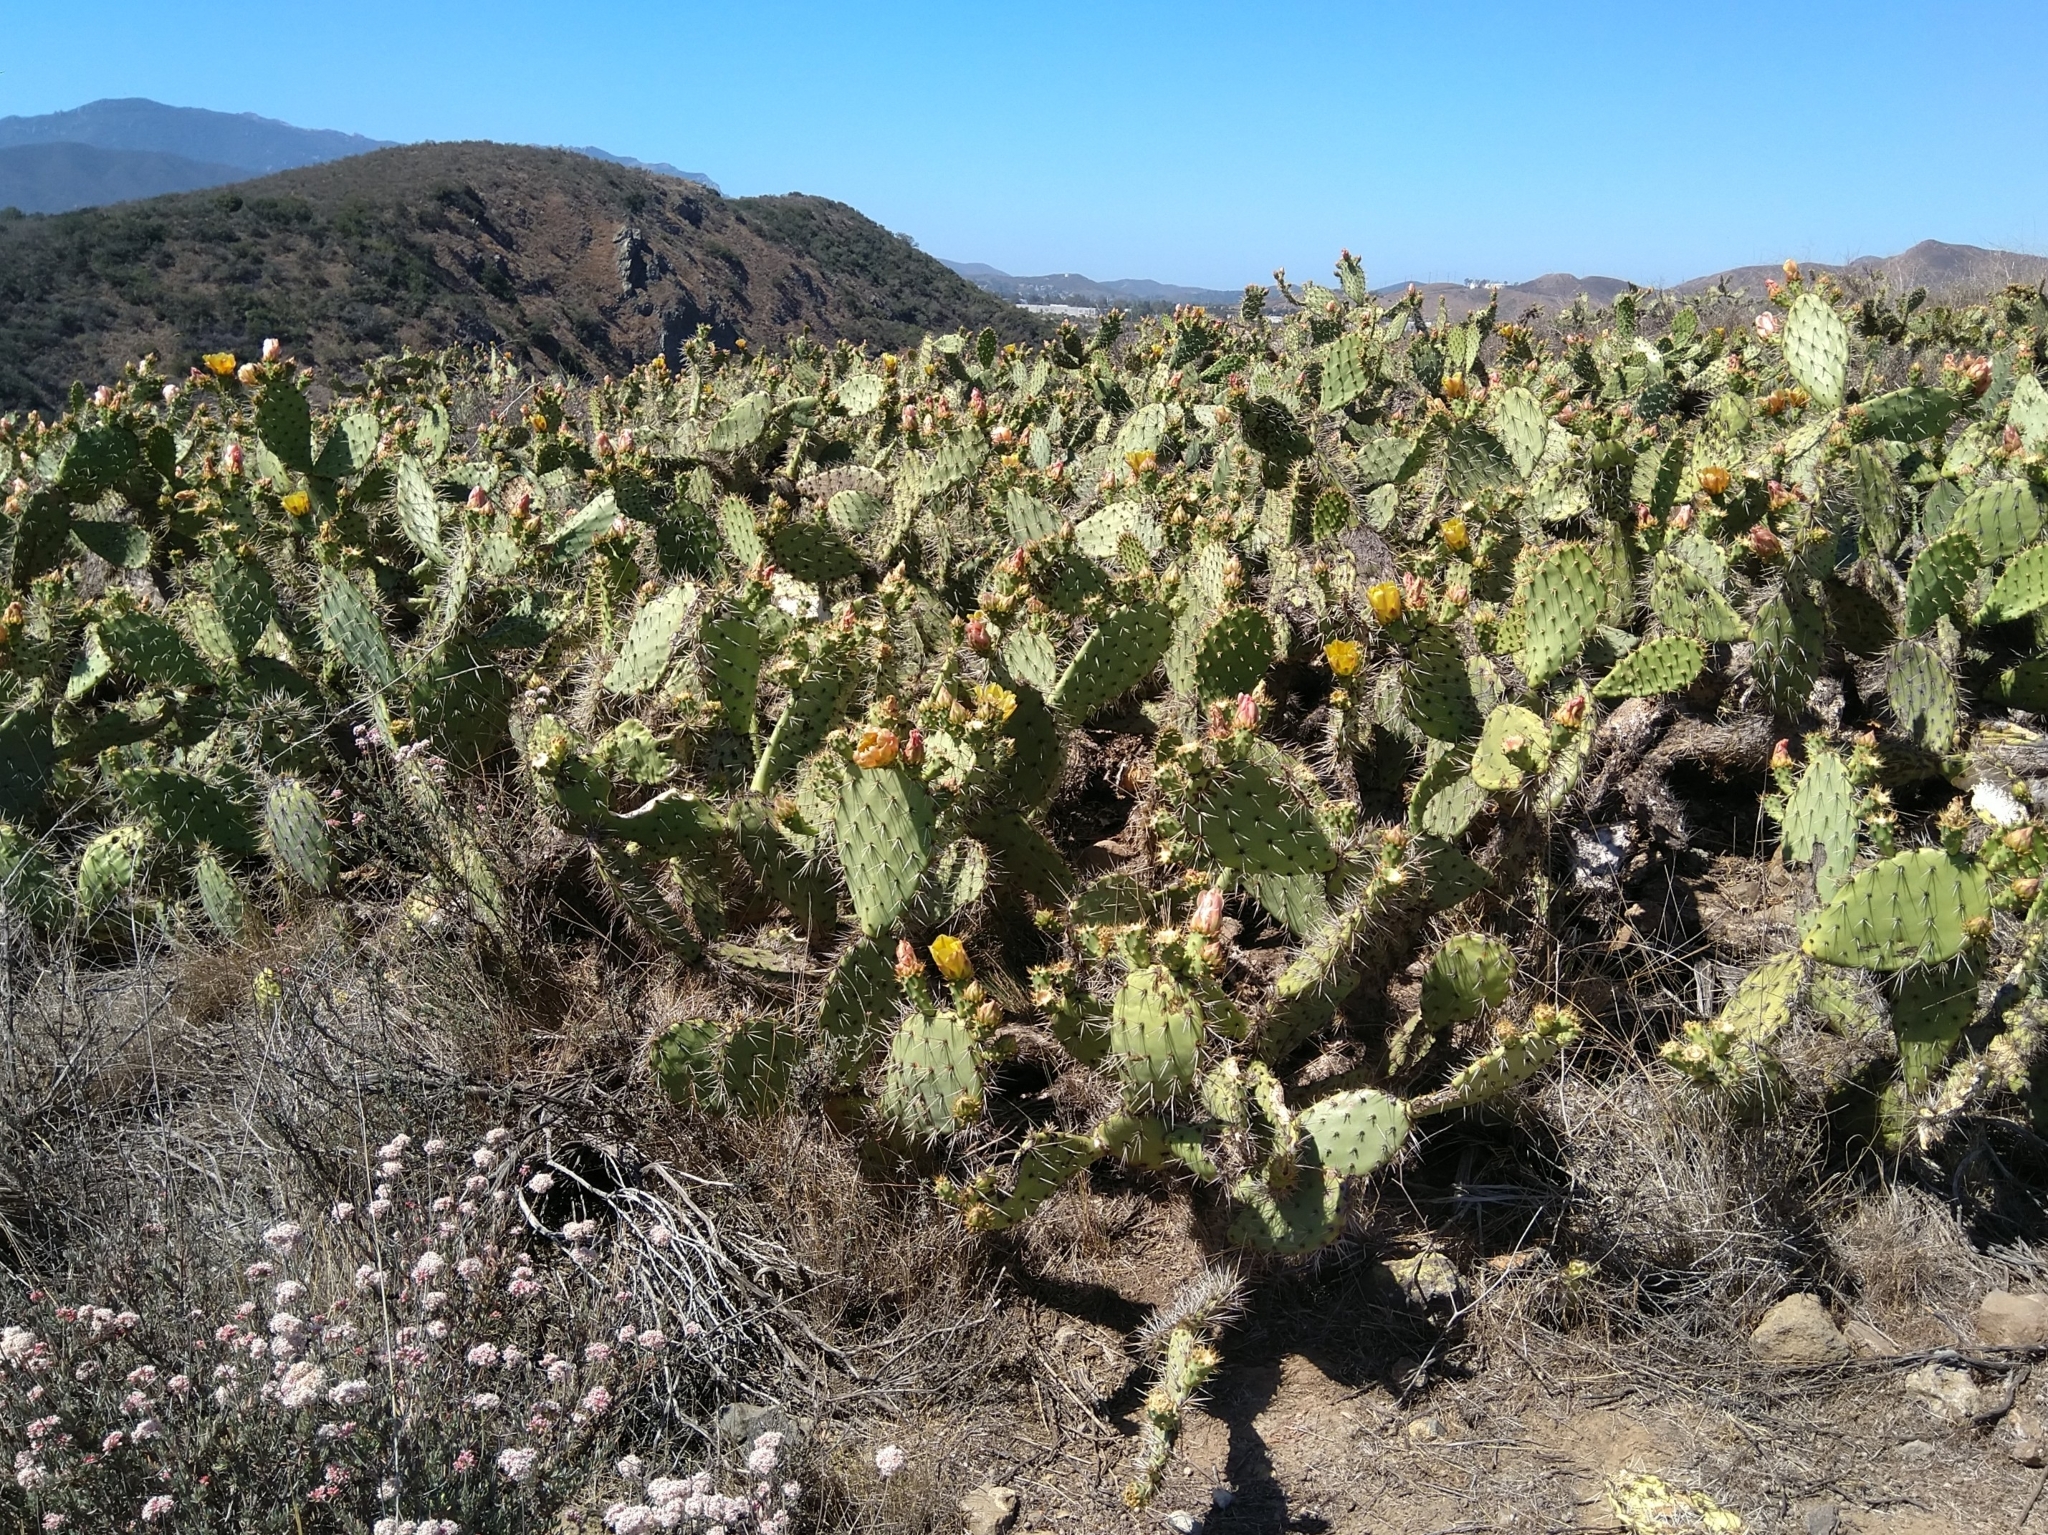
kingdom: Plantae
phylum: Tracheophyta
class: Magnoliopsida
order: Caryophyllales
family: Cactaceae
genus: Opuntia
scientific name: Opuntia littoralis
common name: Coastal prickly-pear
